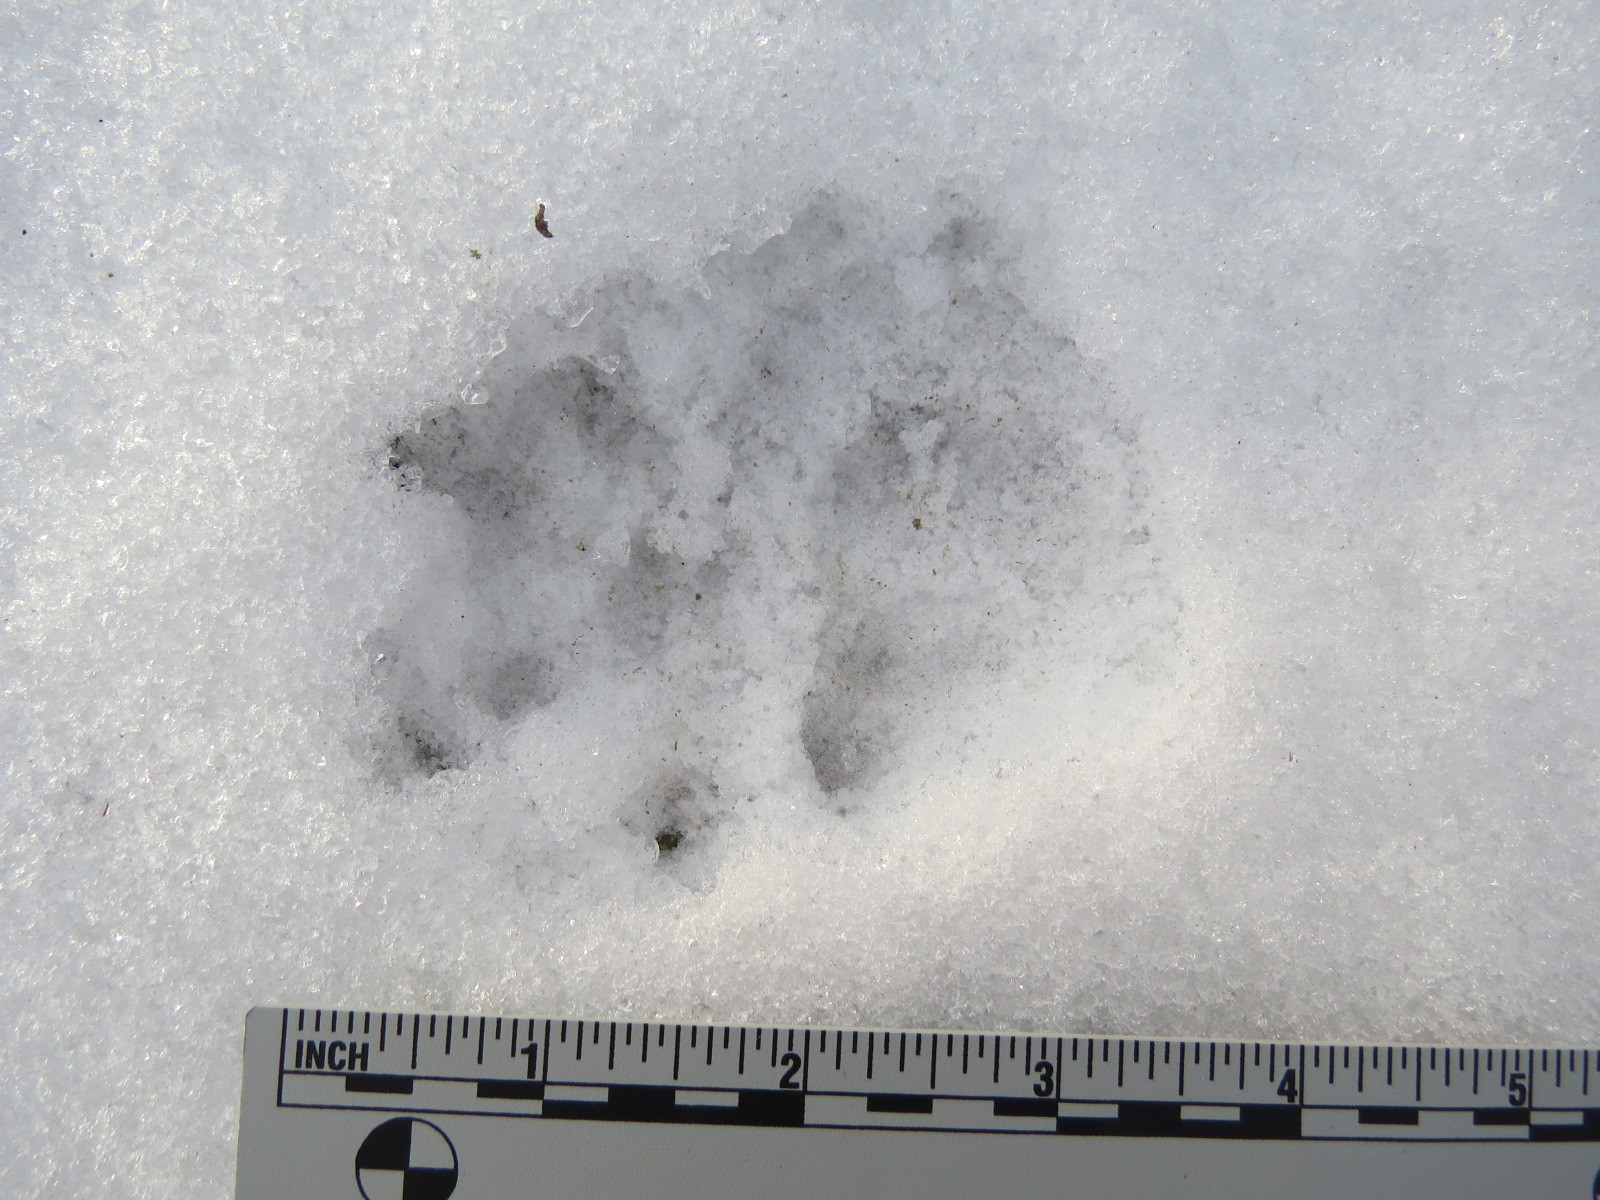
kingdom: Animalia
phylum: Chordata
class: Mammalia
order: Didelphimorphia
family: Didelphidae
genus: Didelphis
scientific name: Didelphis virginiana
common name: Virginia opossum
